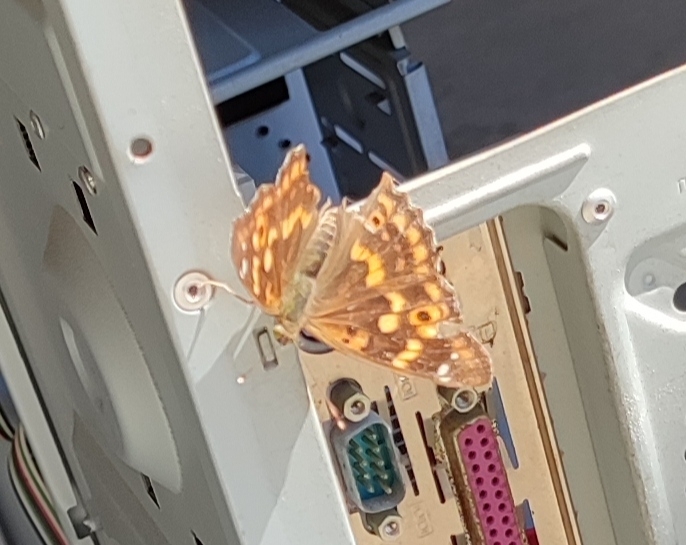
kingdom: Animalia
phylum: Arthropoda
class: Insecta
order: Lepidoptera
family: Nymphalidae
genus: Apatura
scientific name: Apatura ilia
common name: Lesser purple emperor
